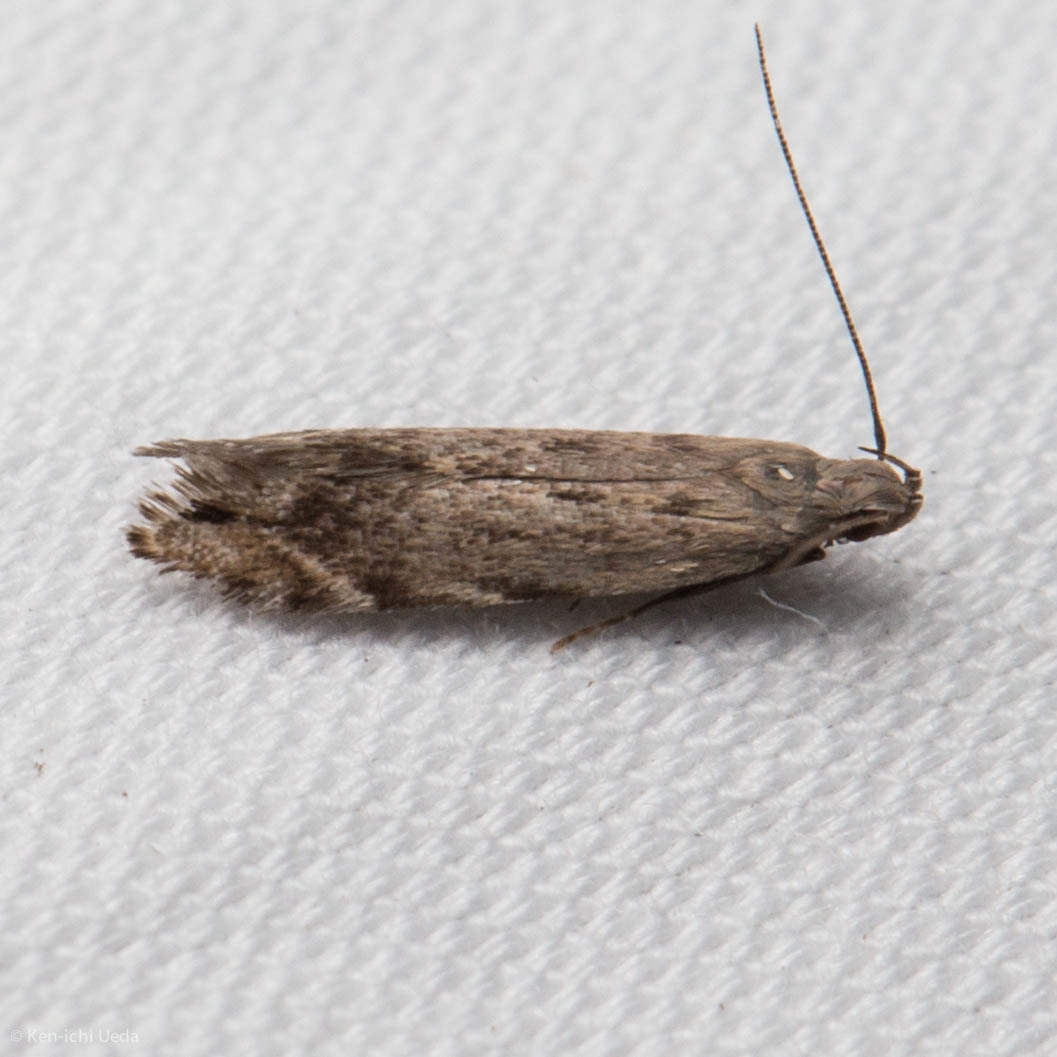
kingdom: Animalia
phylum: Arthropoda
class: Insecta
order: Lepidoptera
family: Gelechiidae
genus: Battaristis
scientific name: Battaristis concinnusella
